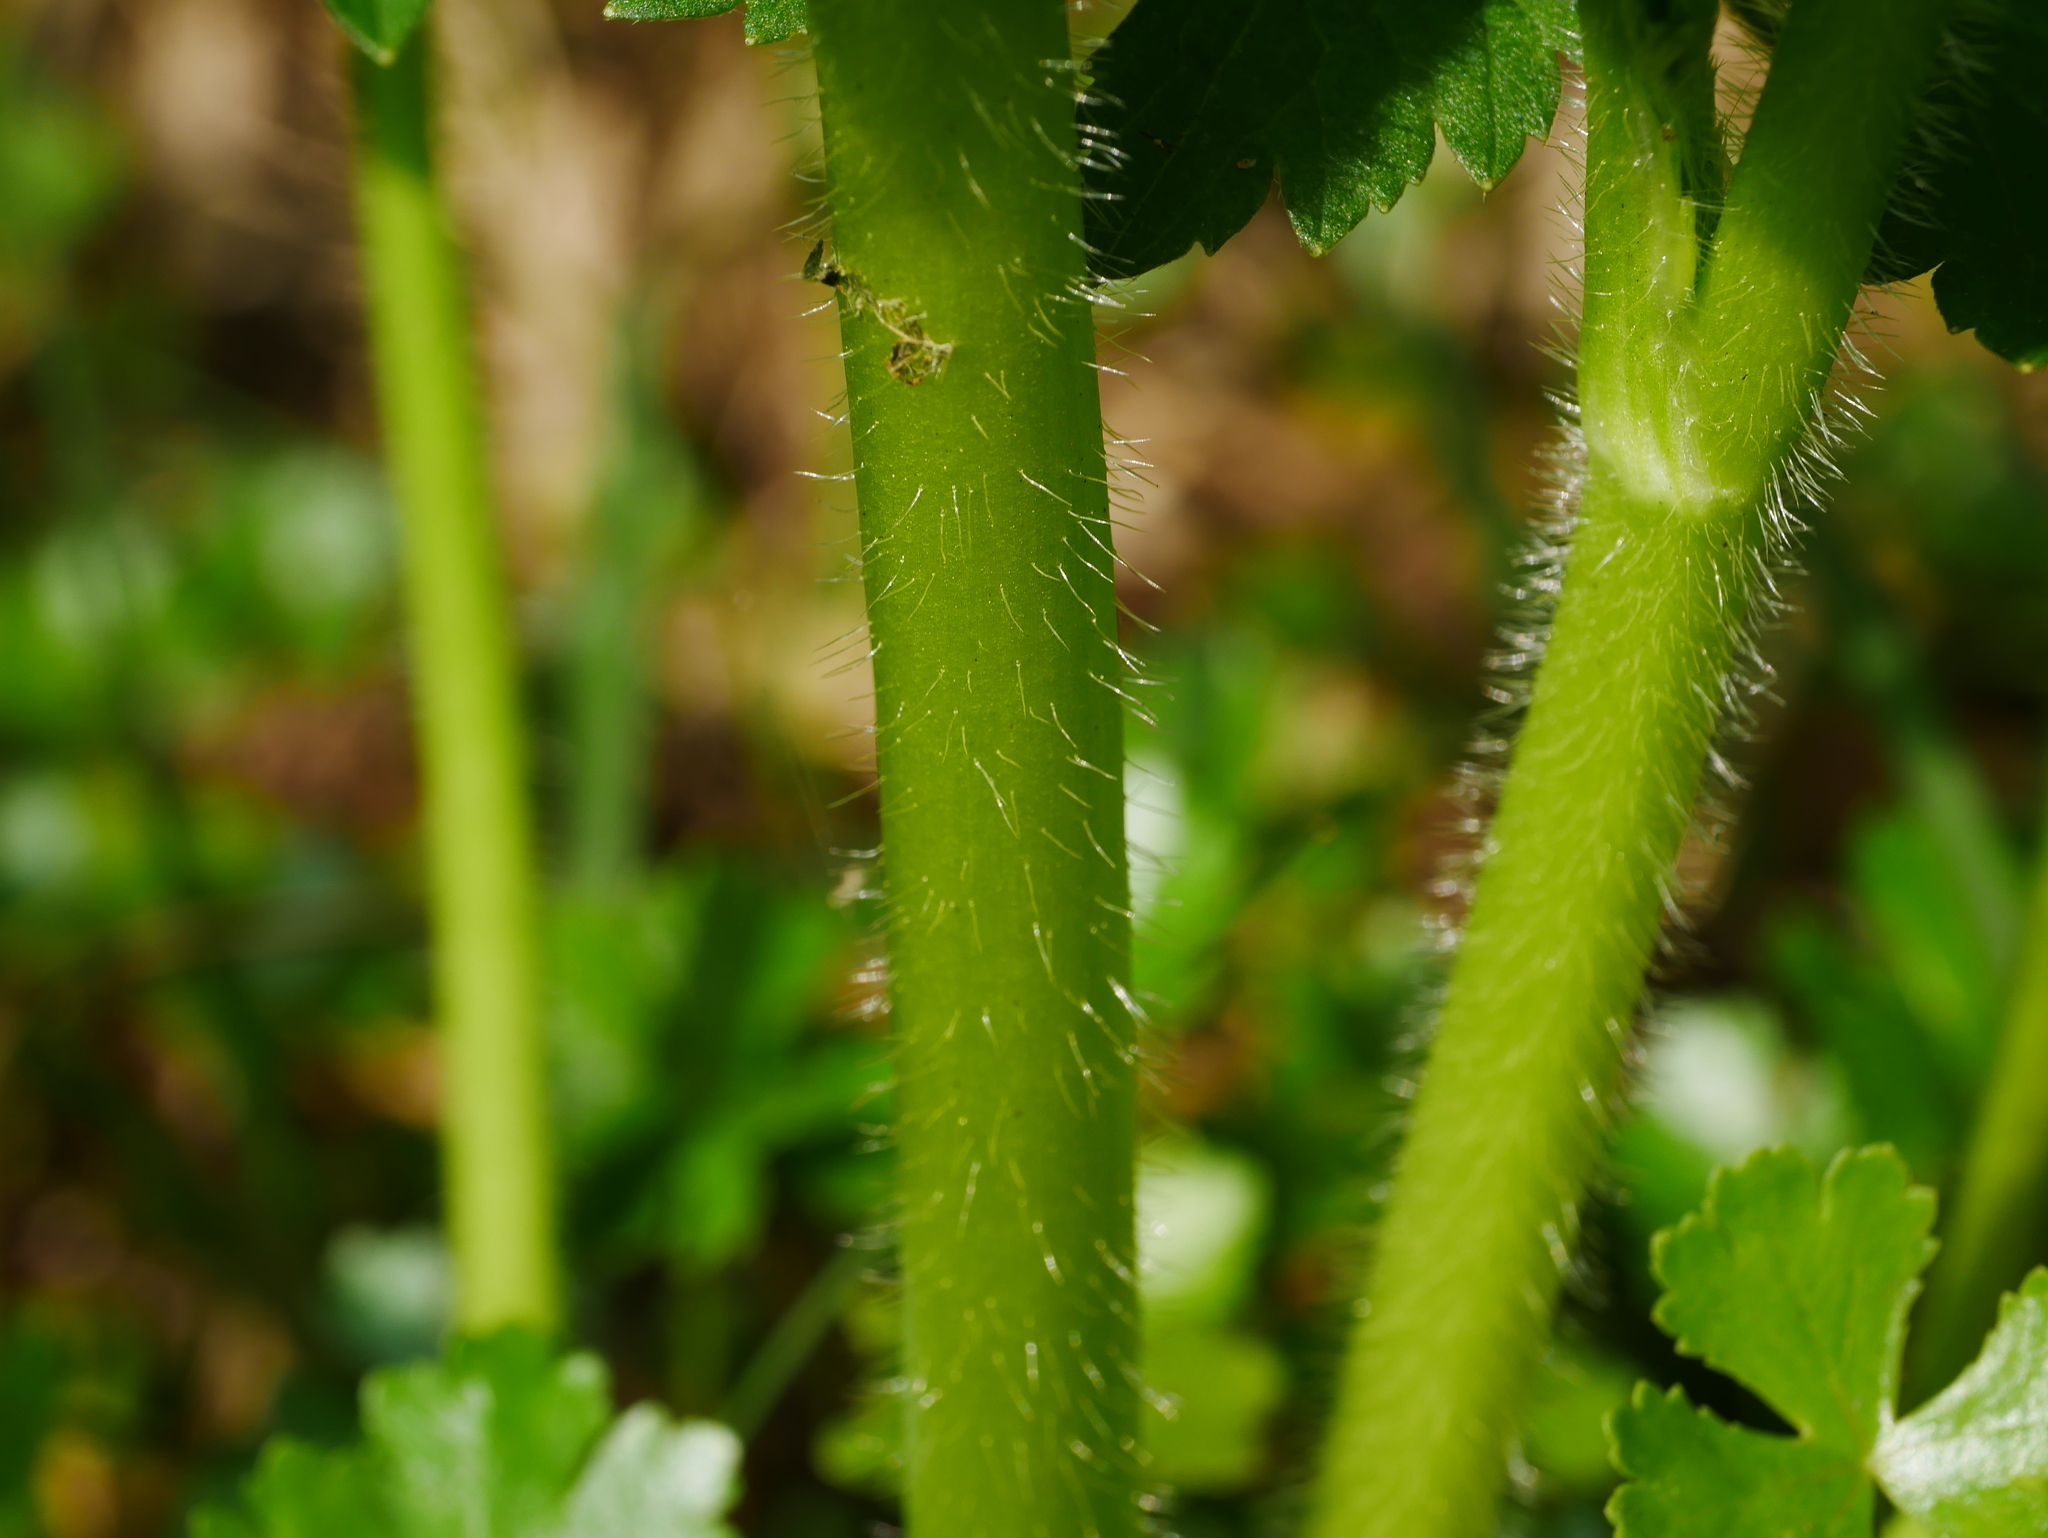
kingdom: Plantae
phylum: Tracheophyta
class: Magnoliopsida
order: Ranunculales
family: Ranunculaceae
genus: Ranunculus
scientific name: Ranunculus cantoniensis
